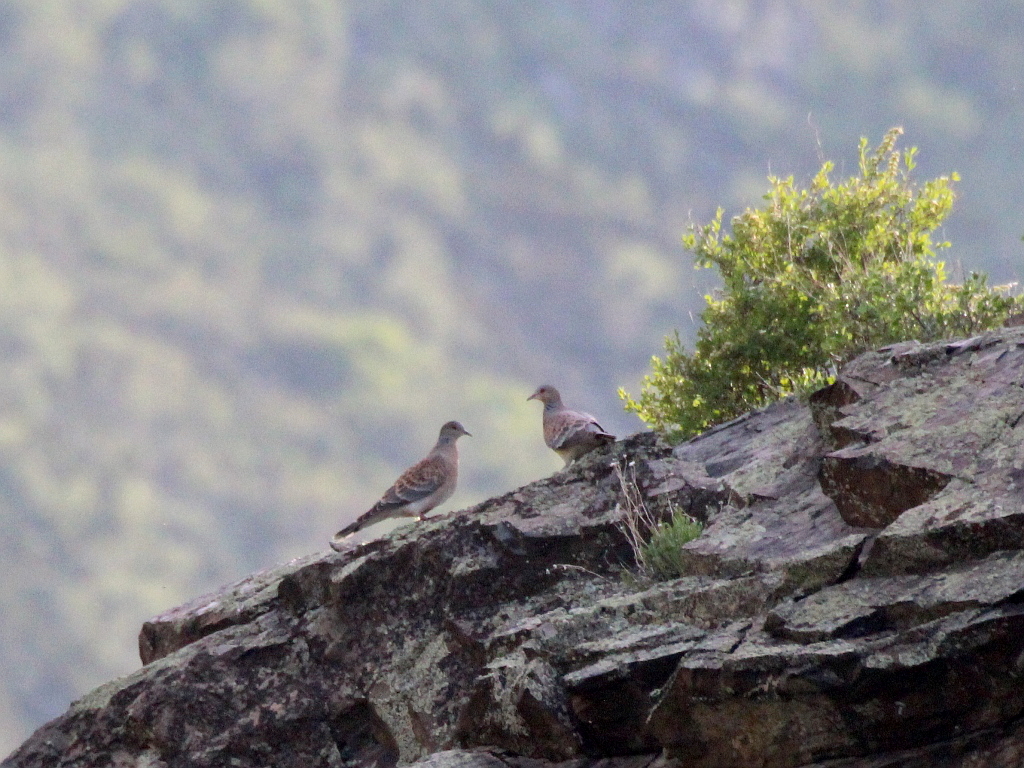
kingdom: Animalia
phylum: Chordata
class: Aves
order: Columbiformes
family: Columbidae
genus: Streptopelia
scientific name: Streptopelia orientalis
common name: Oriental turtle dove
